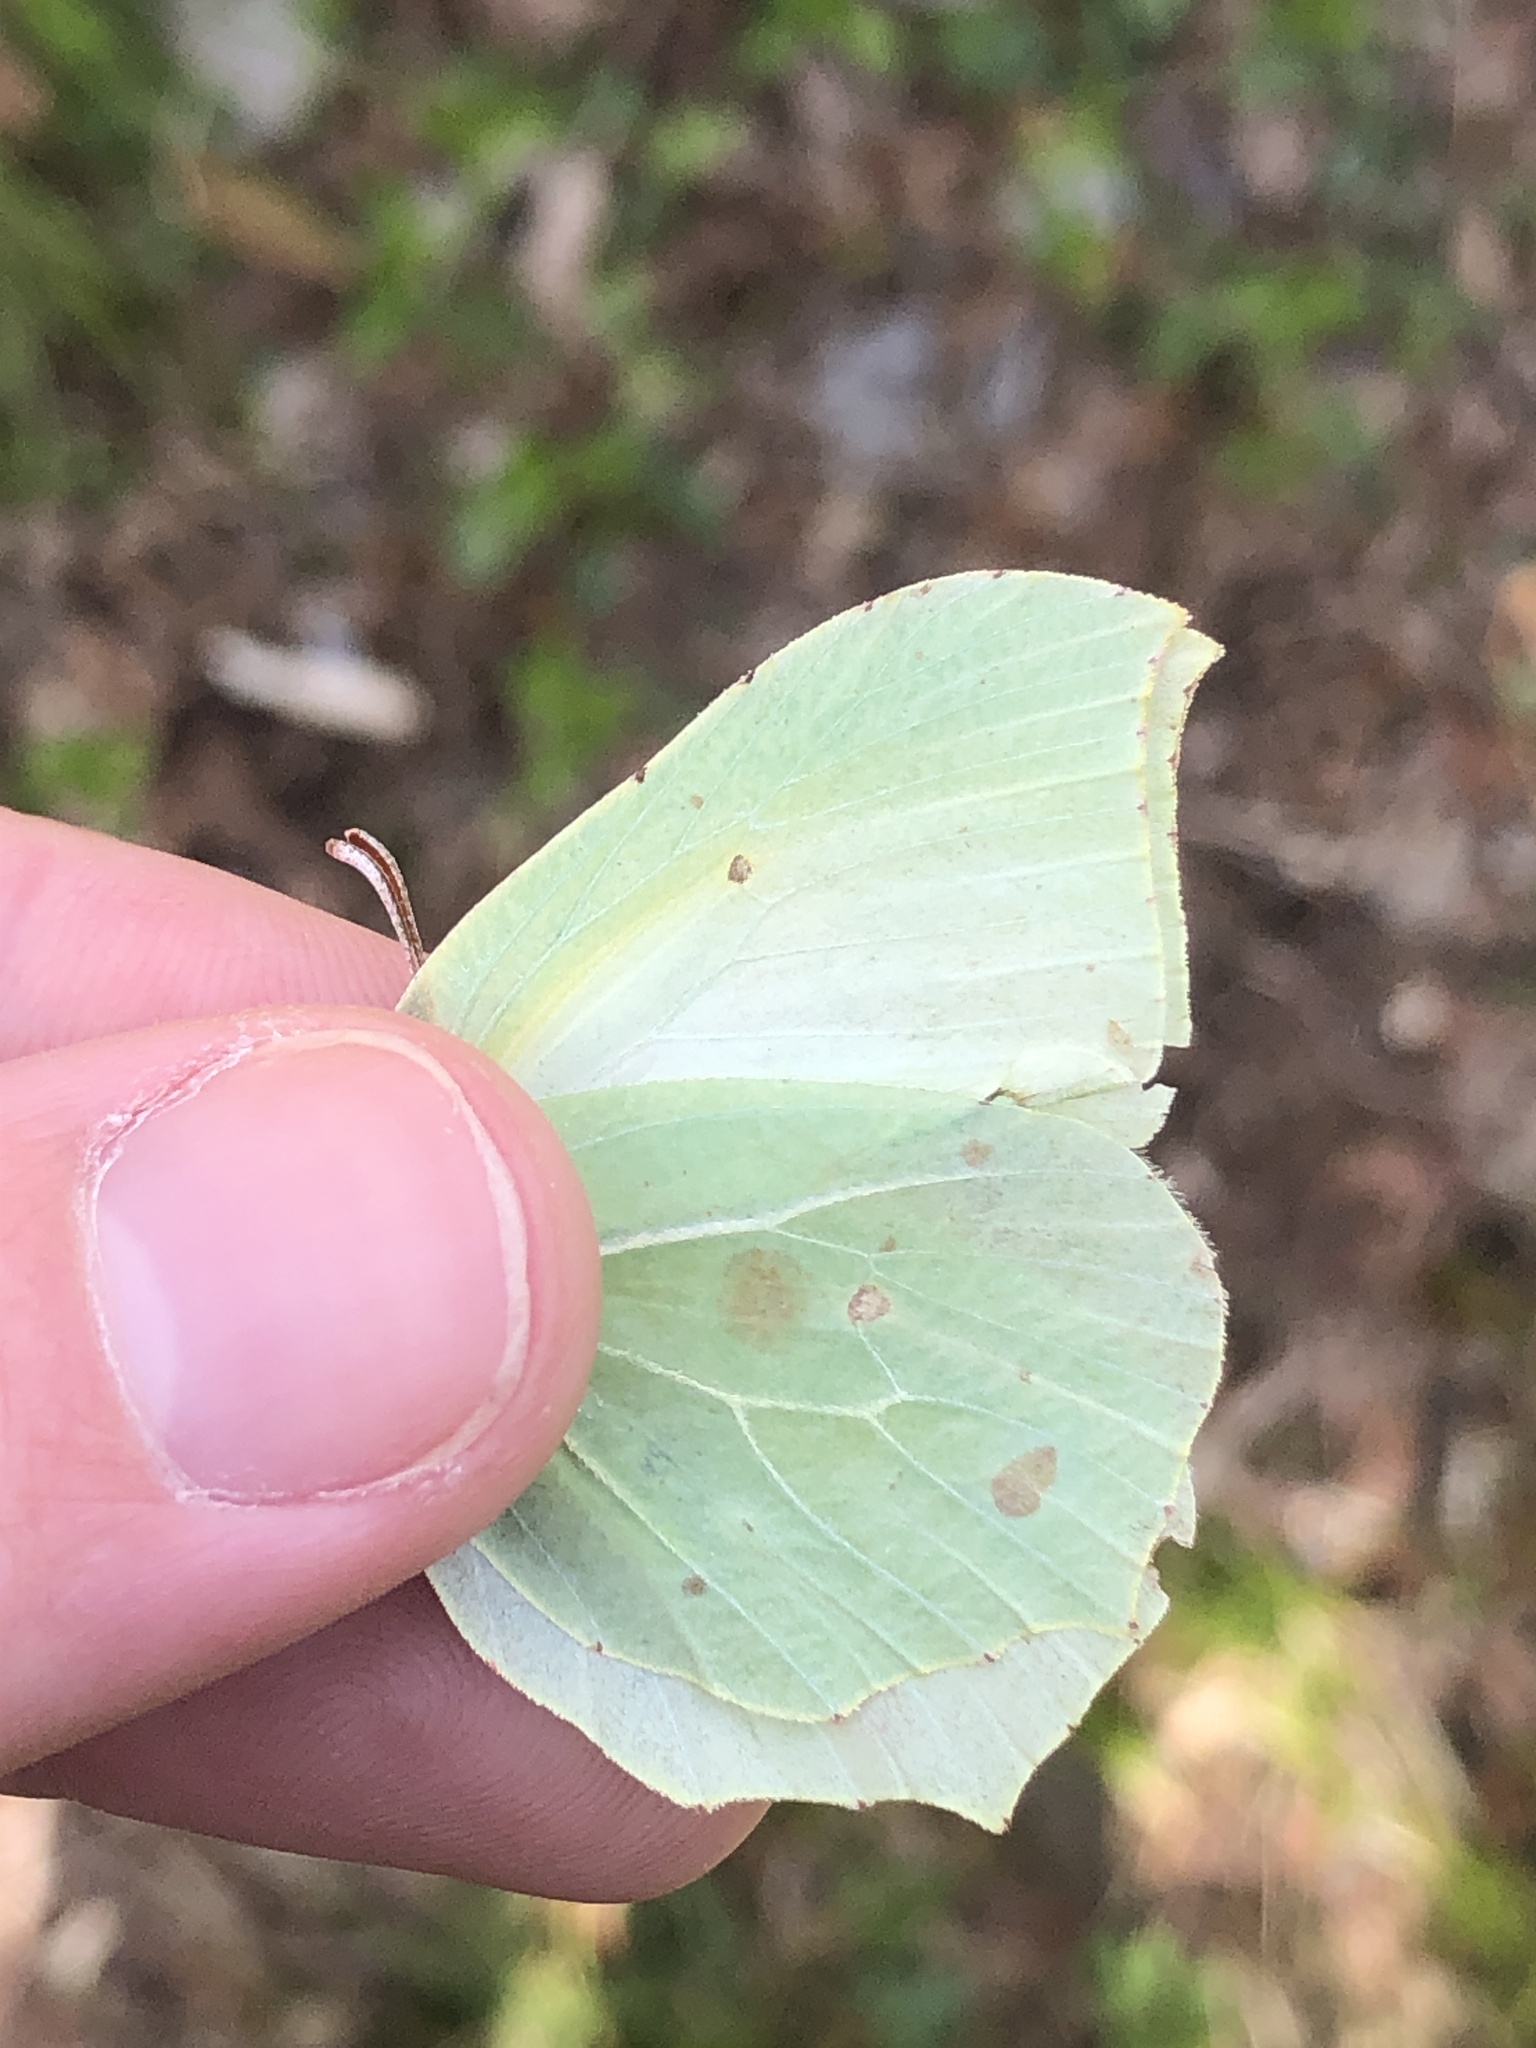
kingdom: Animalia
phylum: Arthropoda
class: Insecta
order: Lepidoptera
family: Pieridae
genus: Gonepteryx
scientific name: Gonepteryx rhamni
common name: Brimstone
